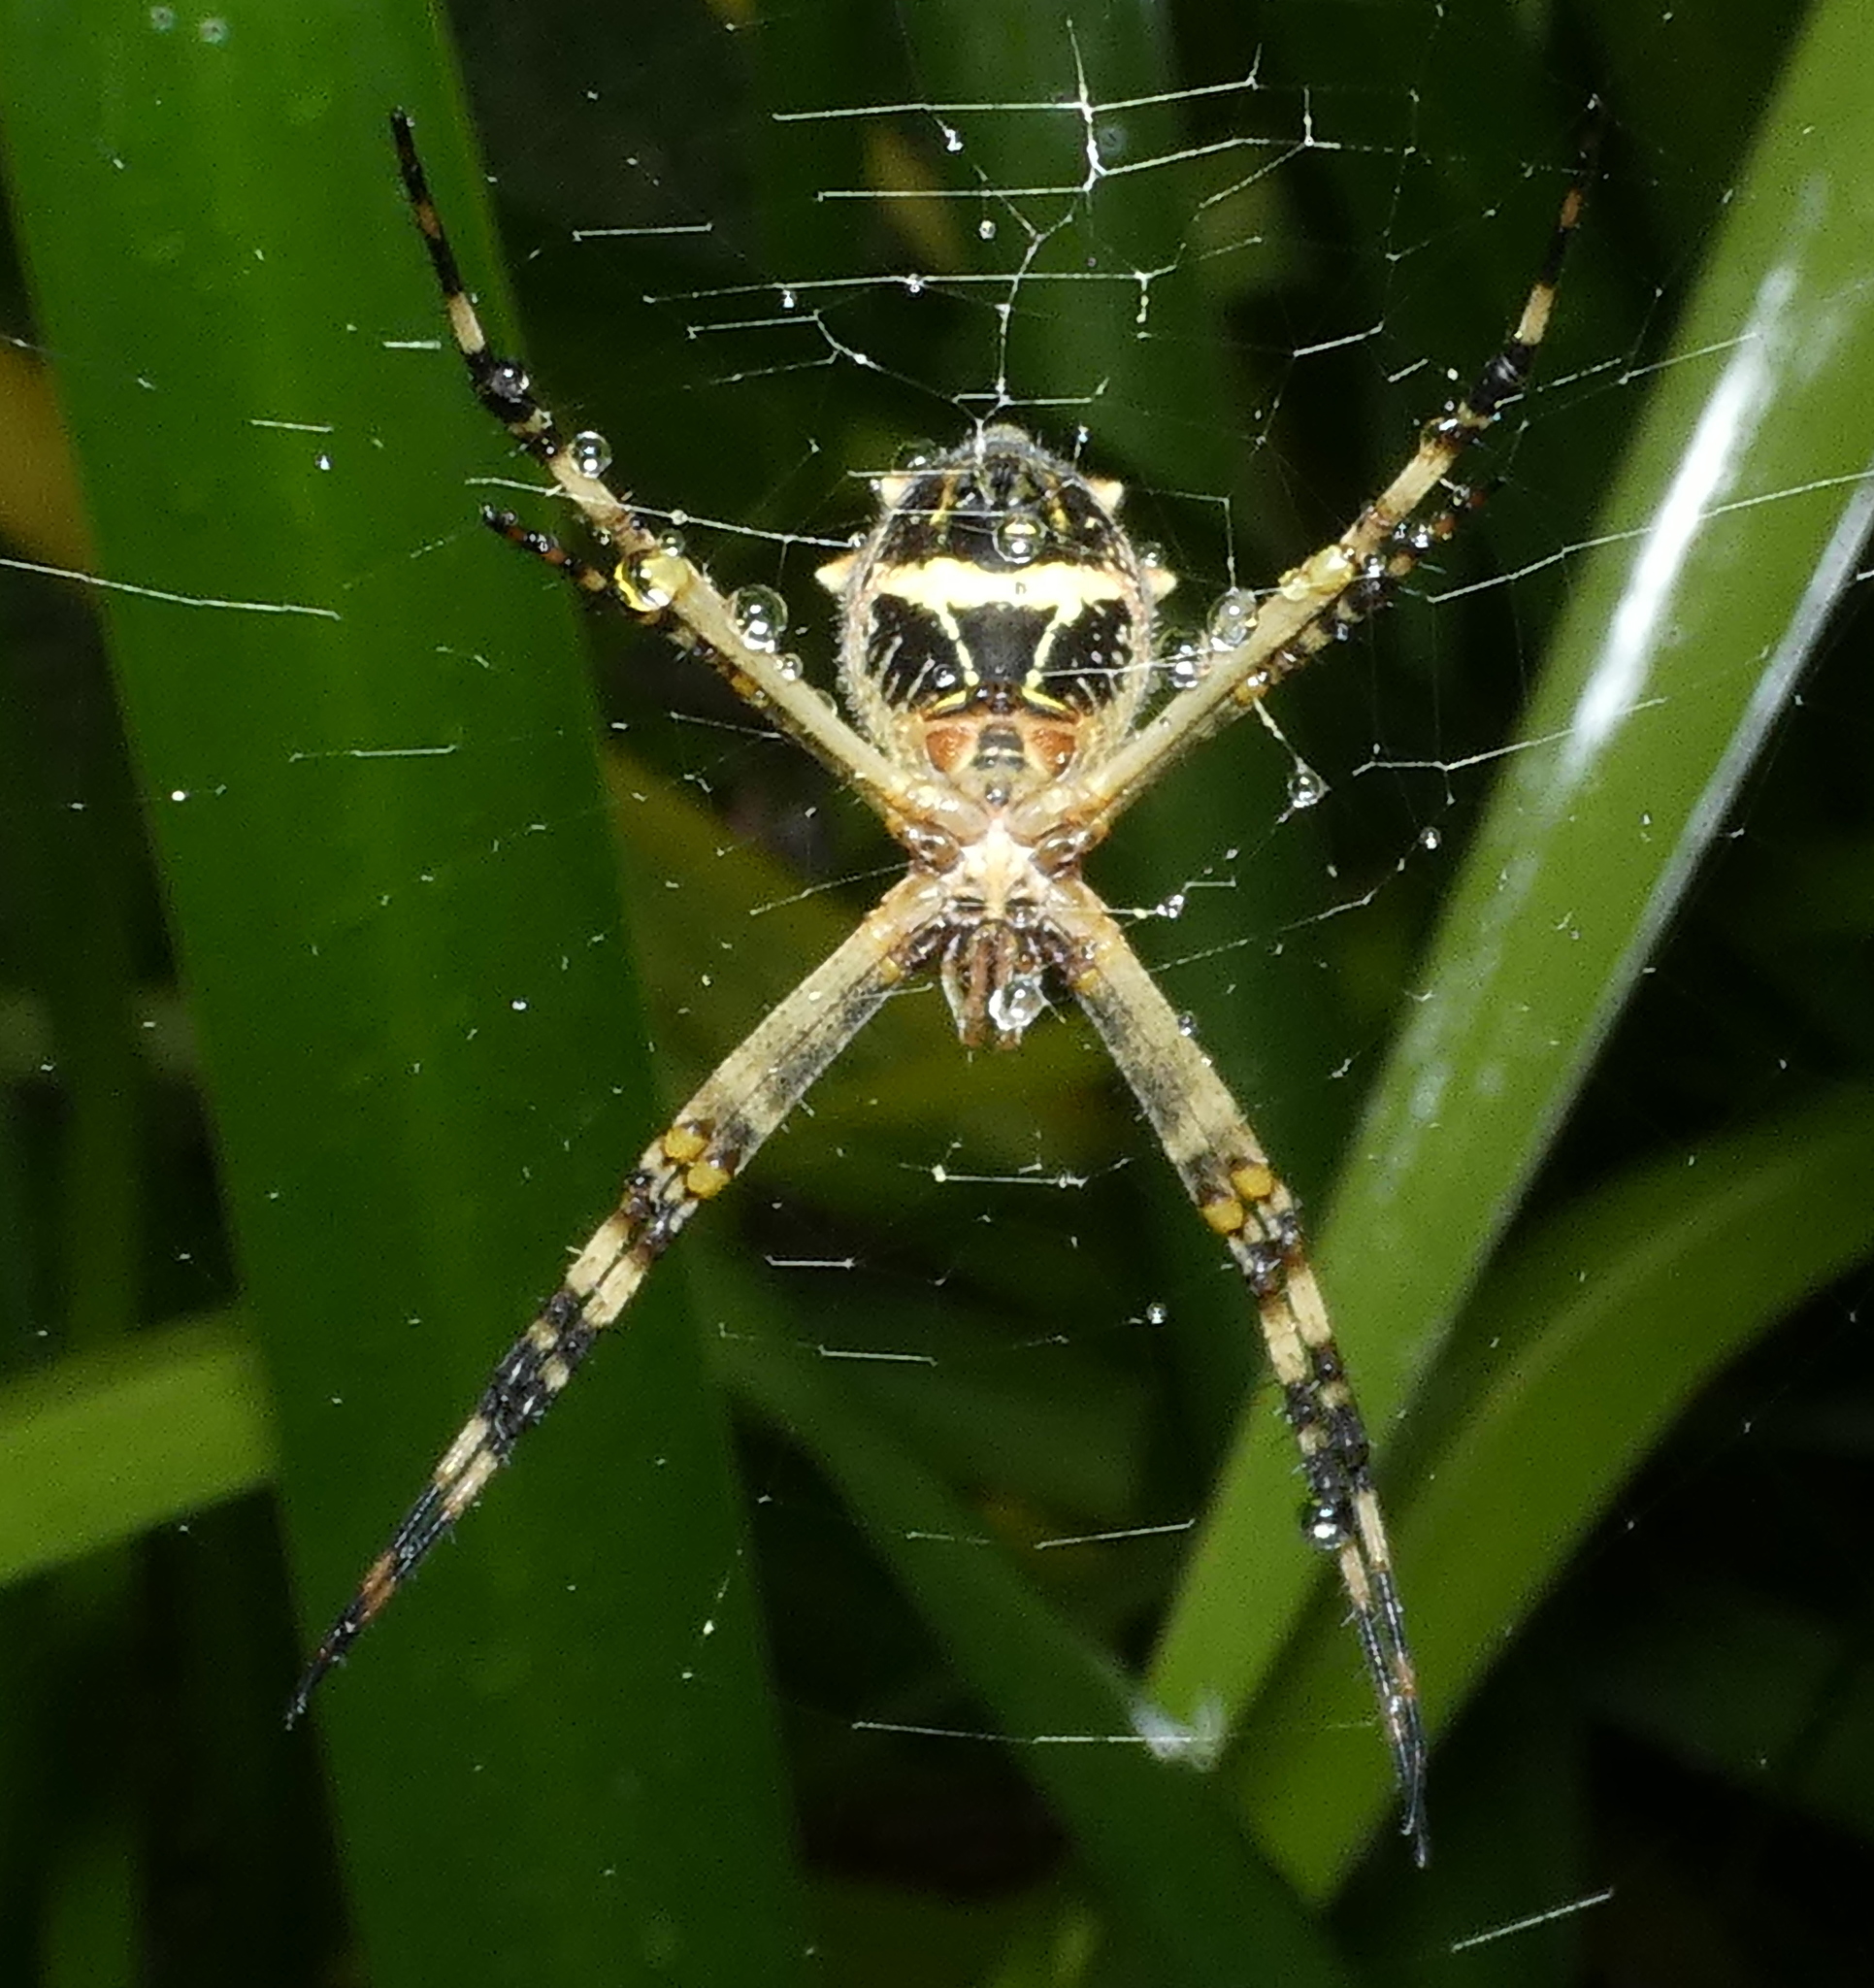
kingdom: Animalia
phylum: Arthropoda
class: Arachnida
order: Araneae
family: Araneidae
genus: Argiope
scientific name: Argiope argentata
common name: Orb weavers
